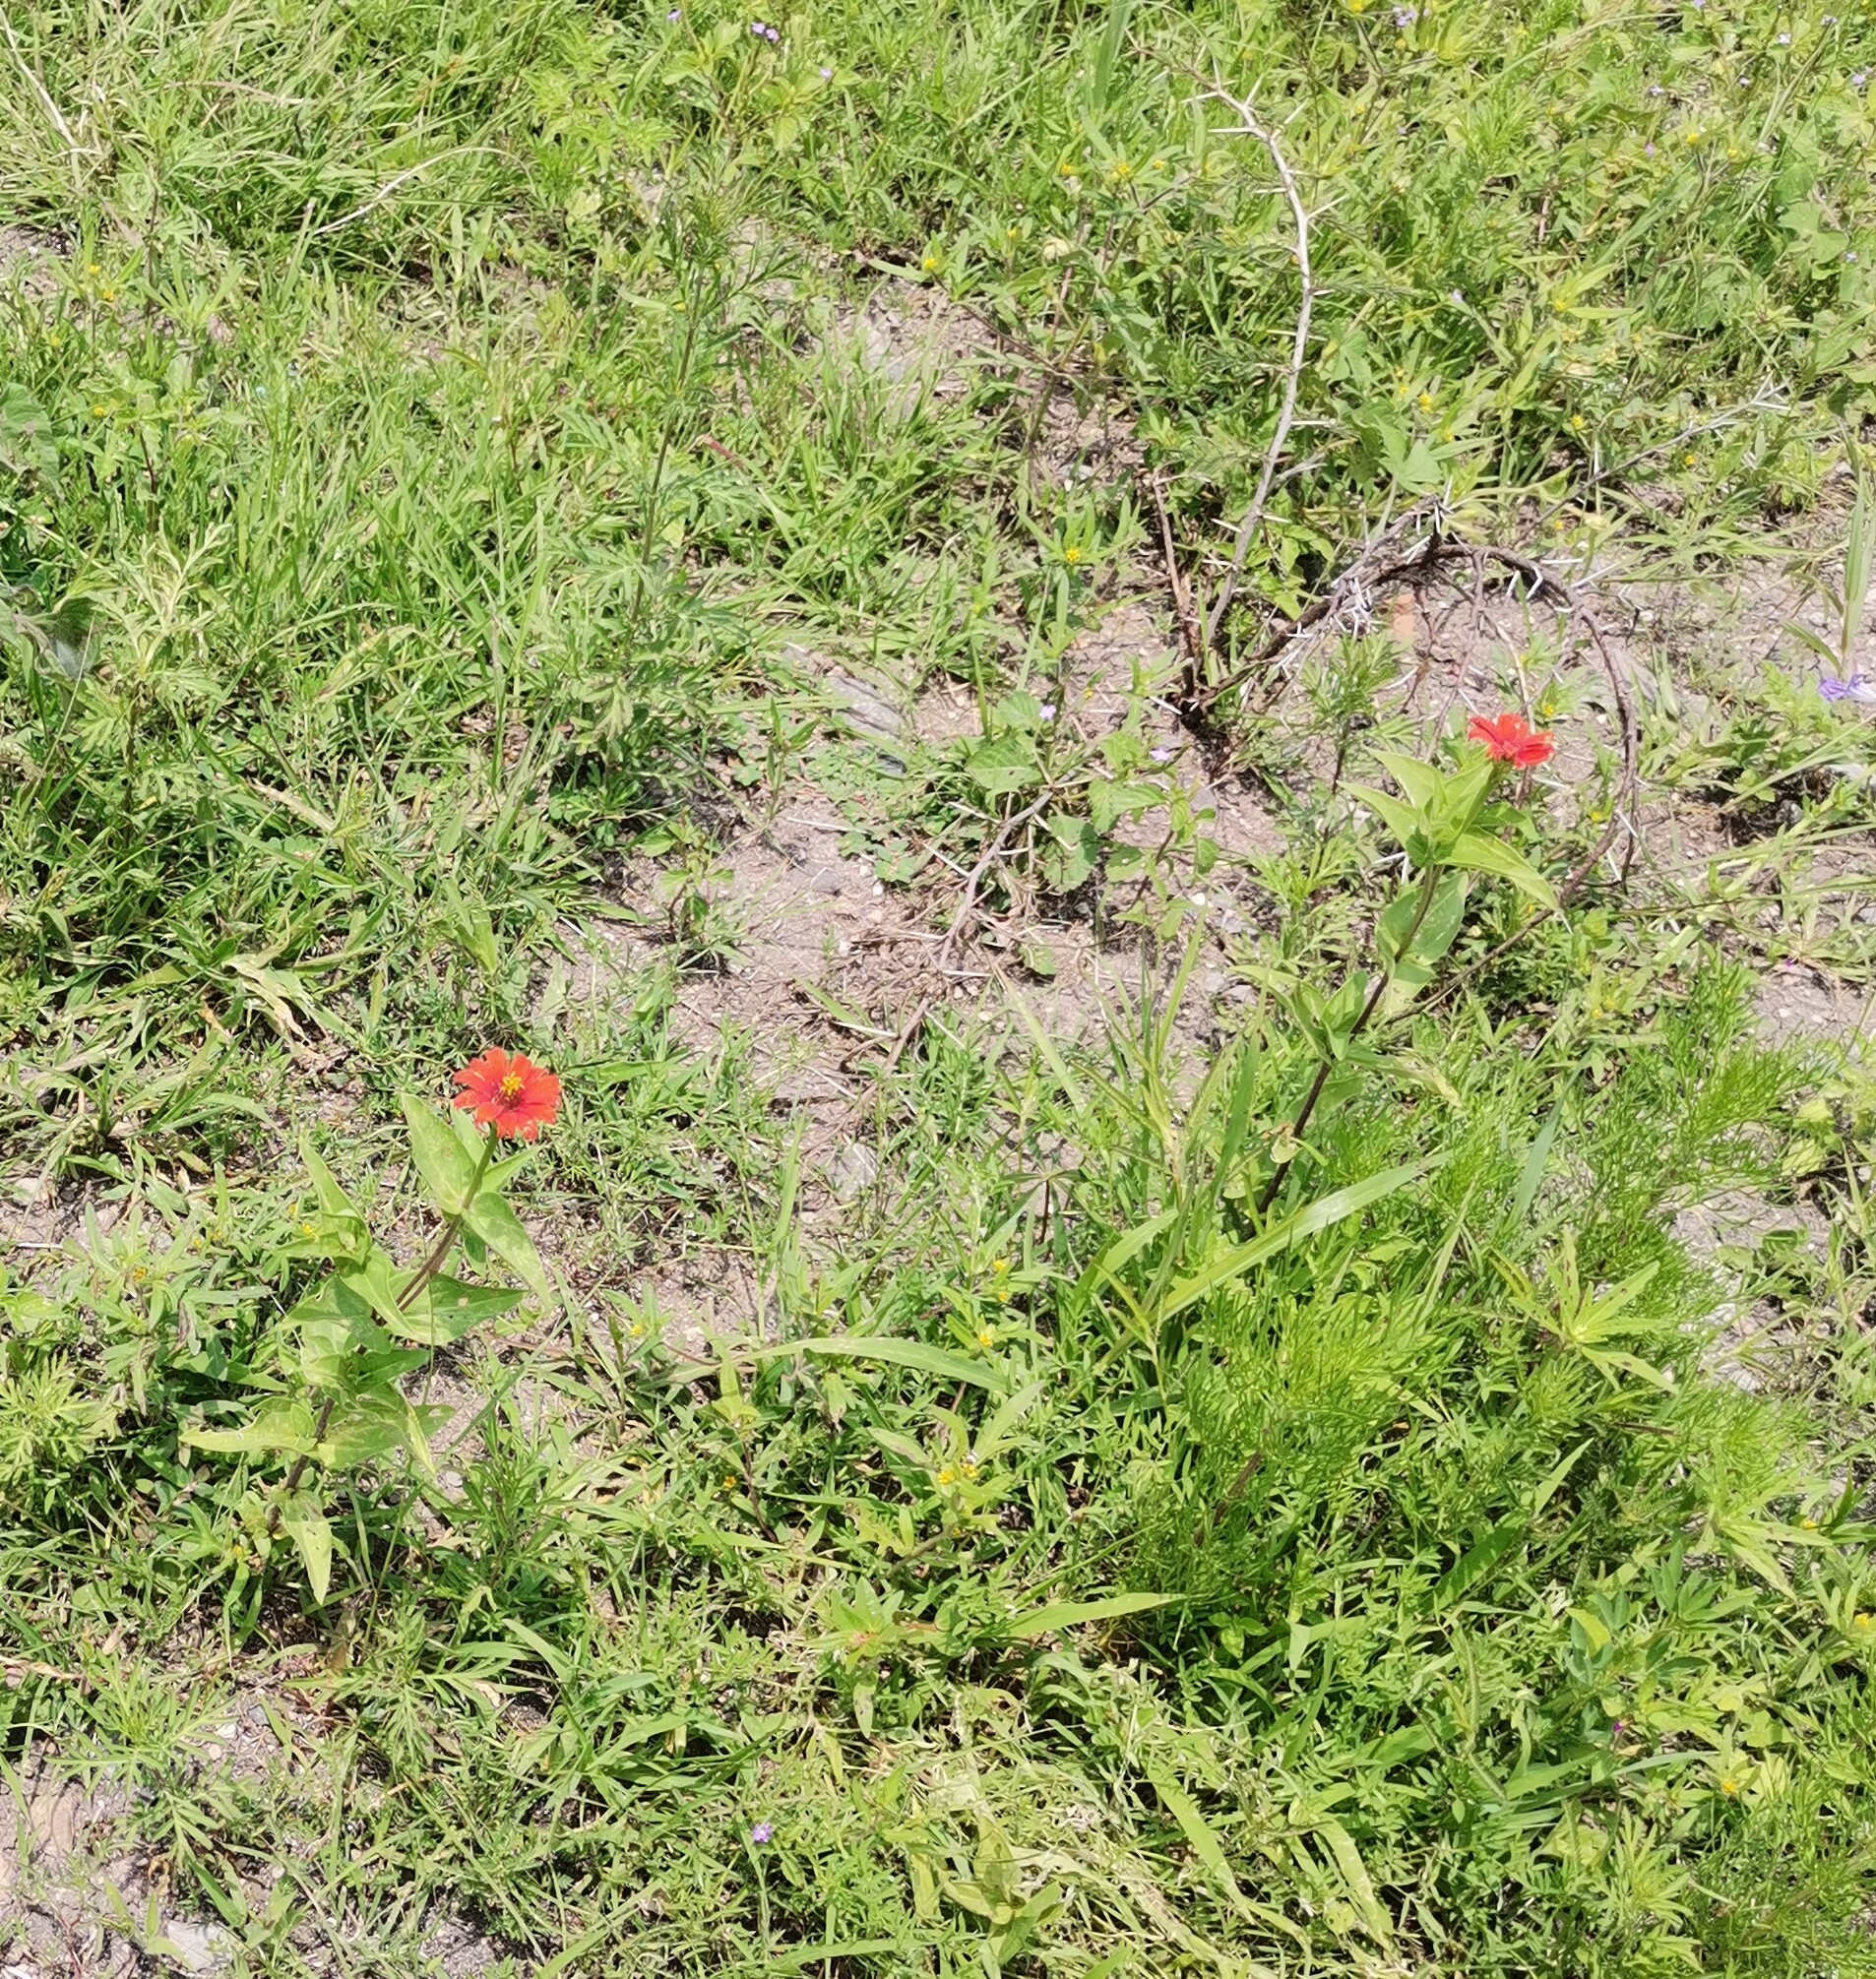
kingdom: Plantae
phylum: Tracheophyta
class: Magnoliopsida
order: Asterales
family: Asteraceae
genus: Zinnia
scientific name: Zinnia peruviana
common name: Peruvian zinnia
